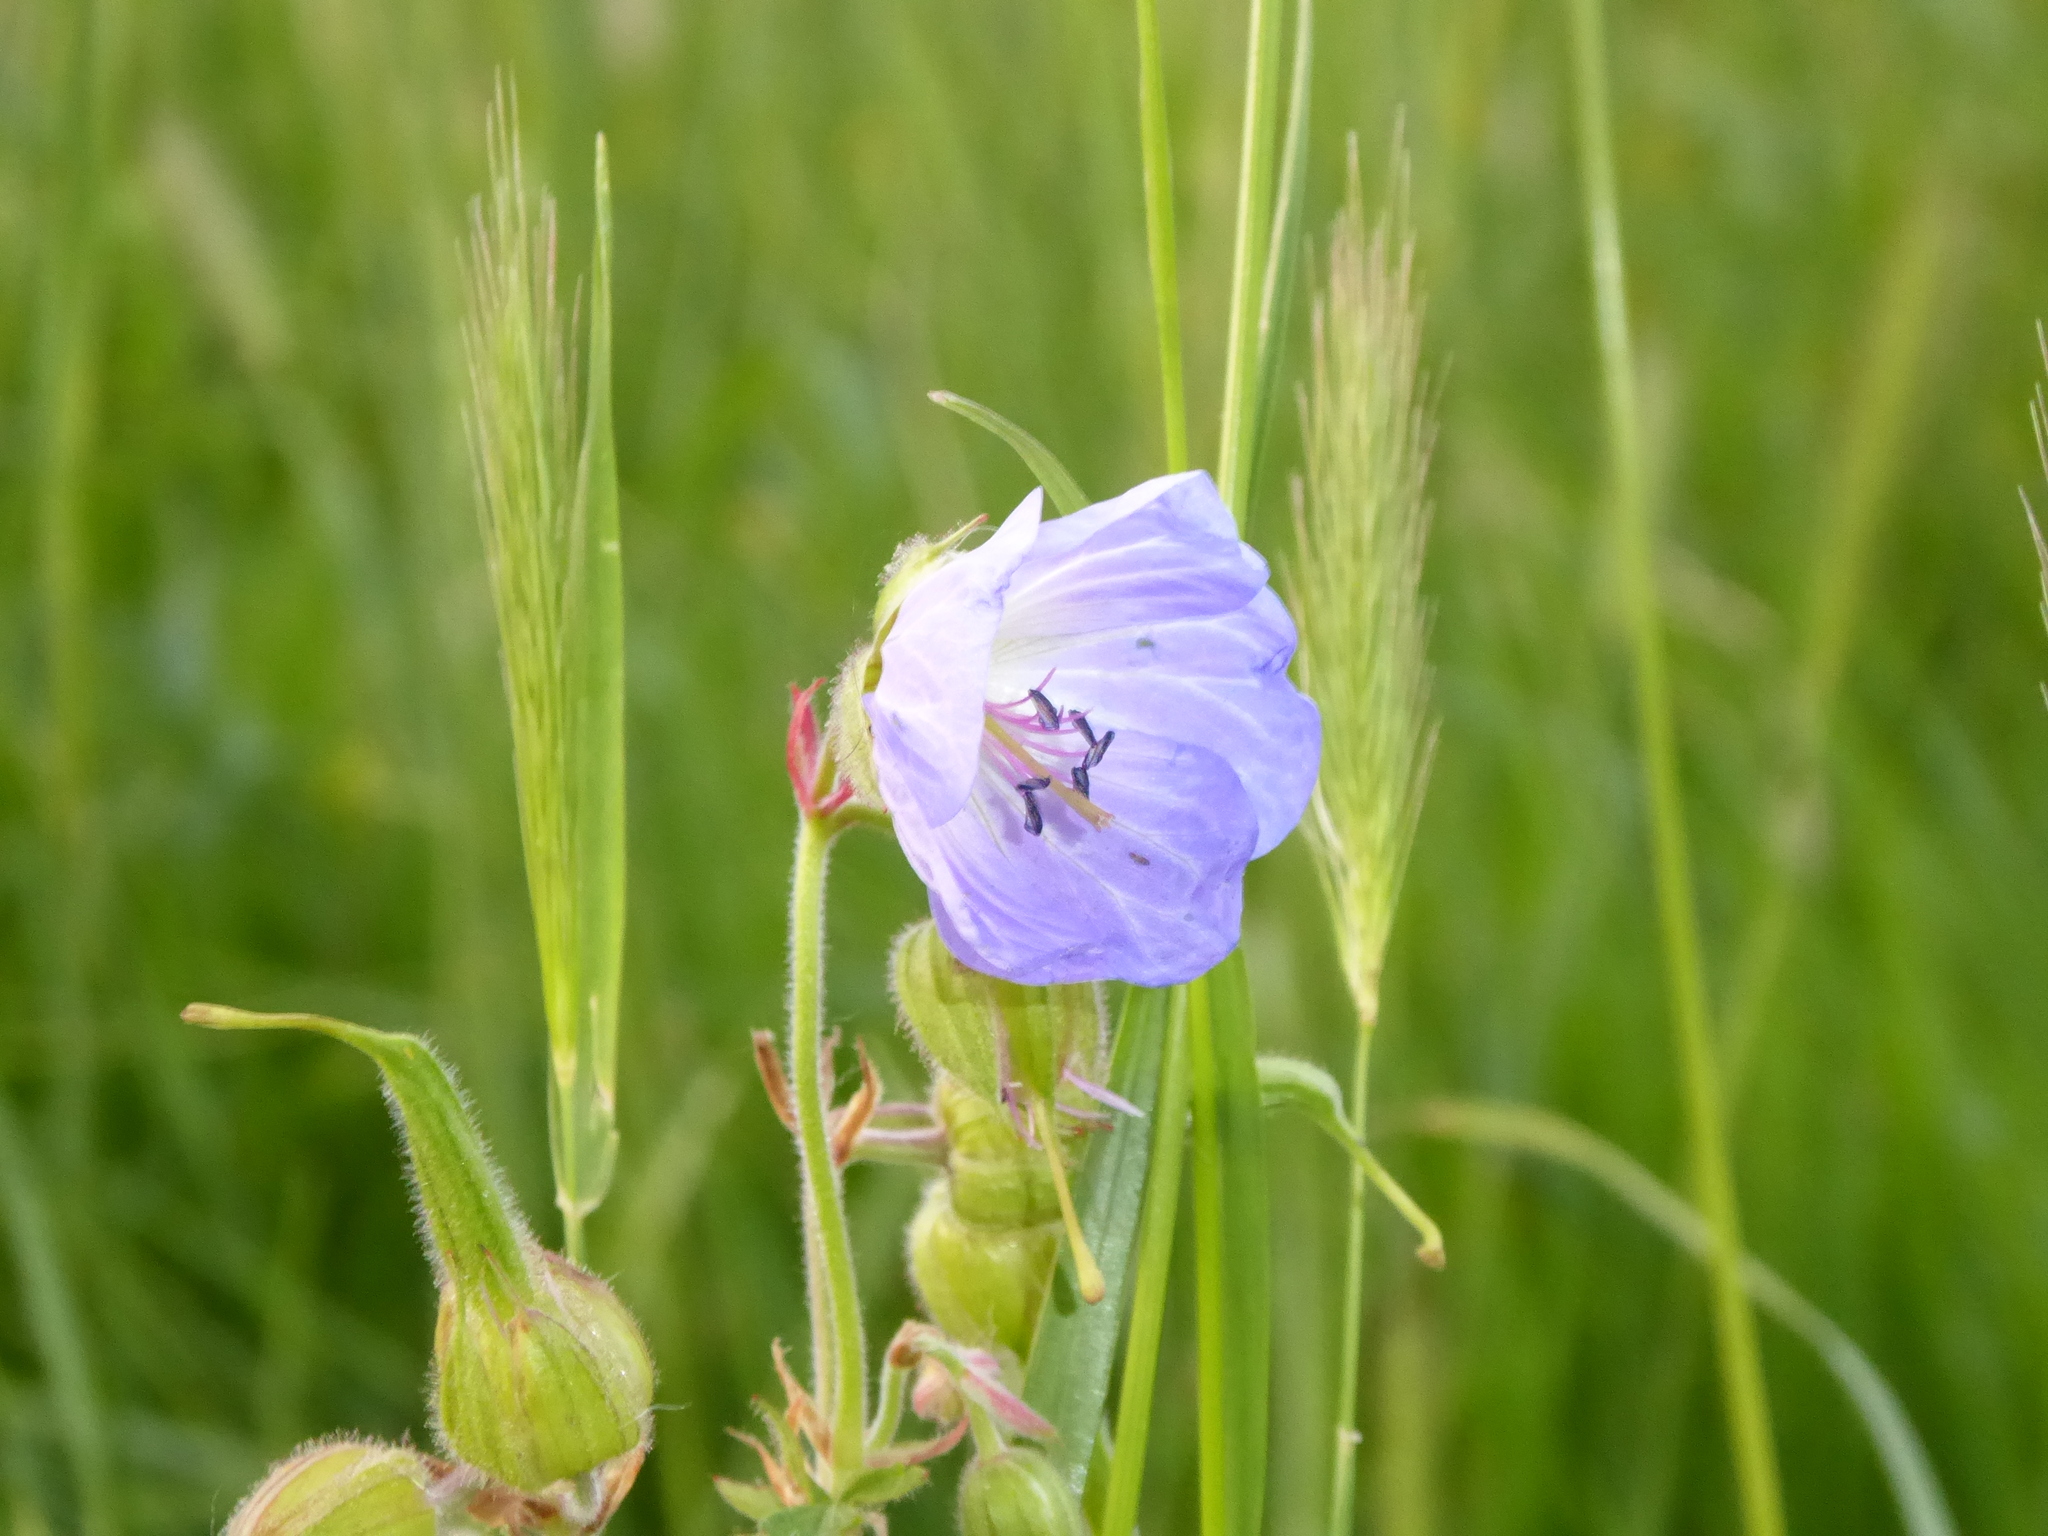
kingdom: Plantae
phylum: Tracheophyta
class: Magnoliopsida
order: Geraniales
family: Geraniaceae
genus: Geranium
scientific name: Geranium pratense
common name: Meadow crane's-bill
